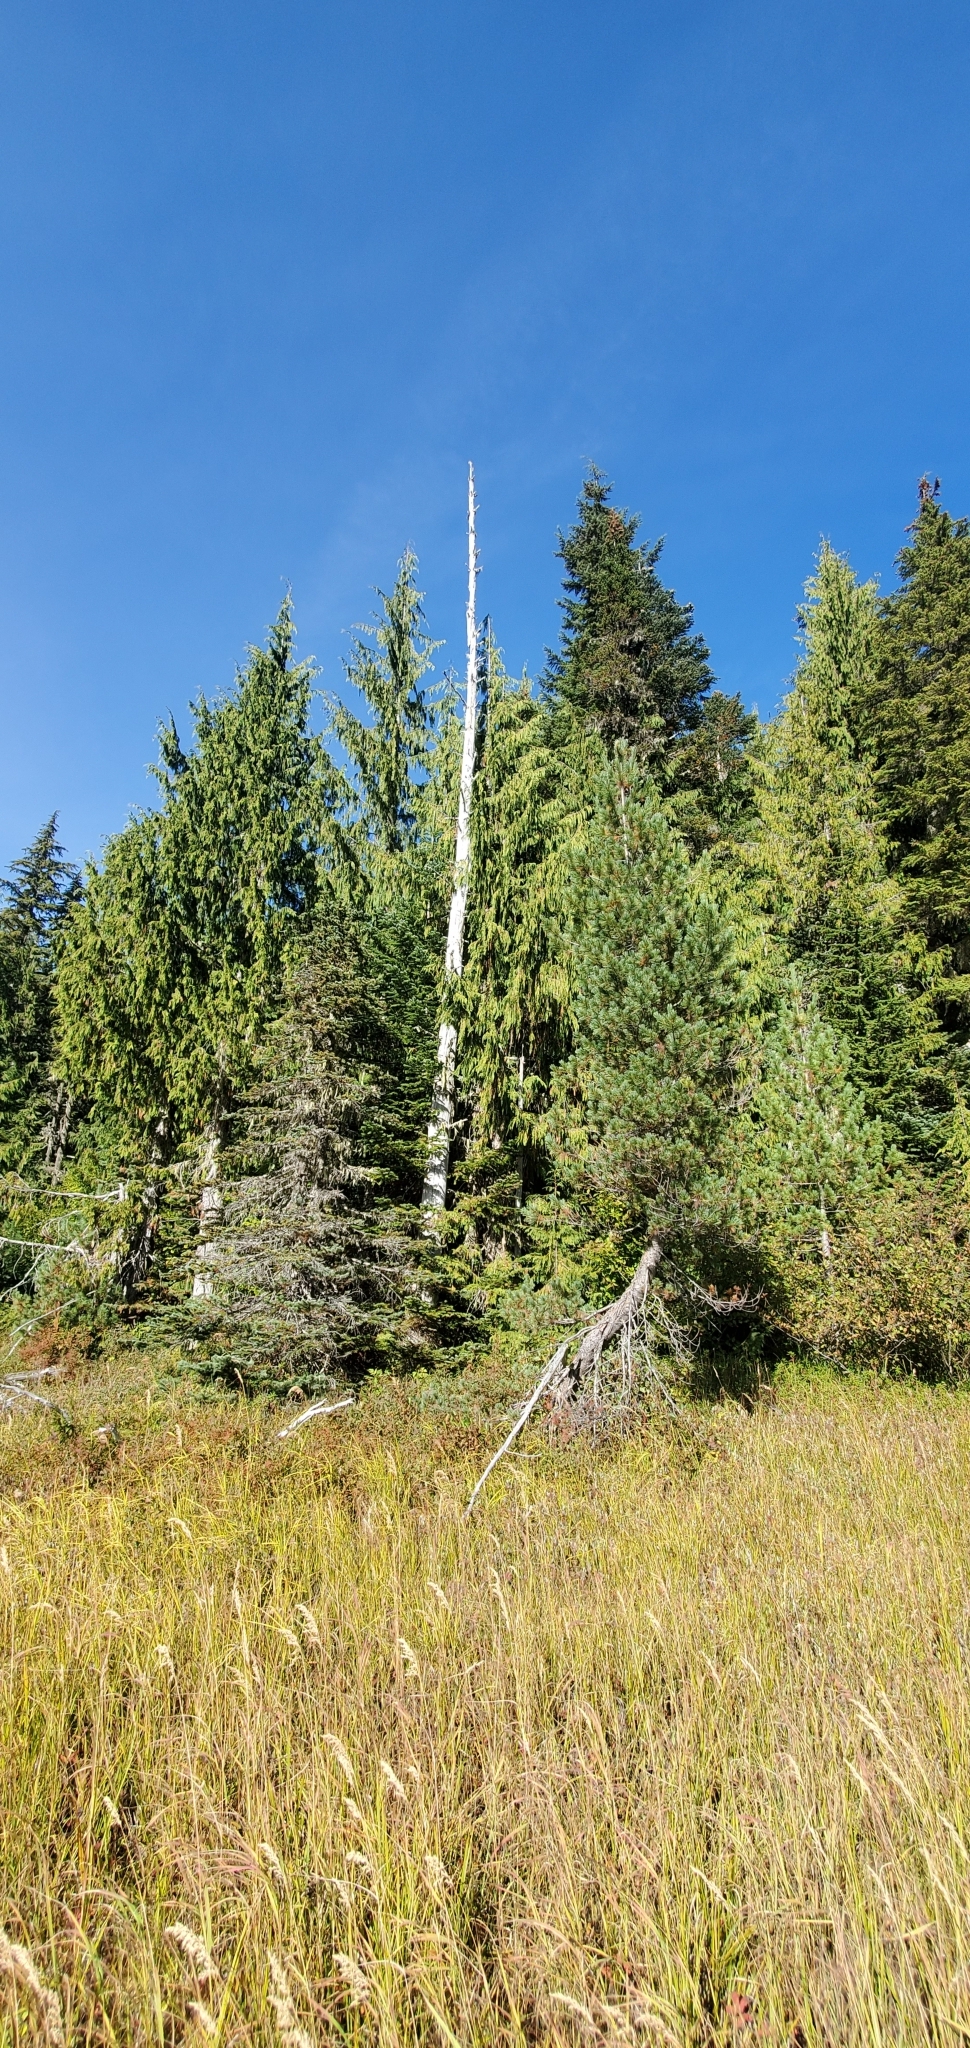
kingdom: Fungi
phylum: Ascomycota
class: Lecanoromycetes
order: Caliciales
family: Caliciaceae
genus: Acroscyphus
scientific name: Acroscyphus sphaerophoroides
